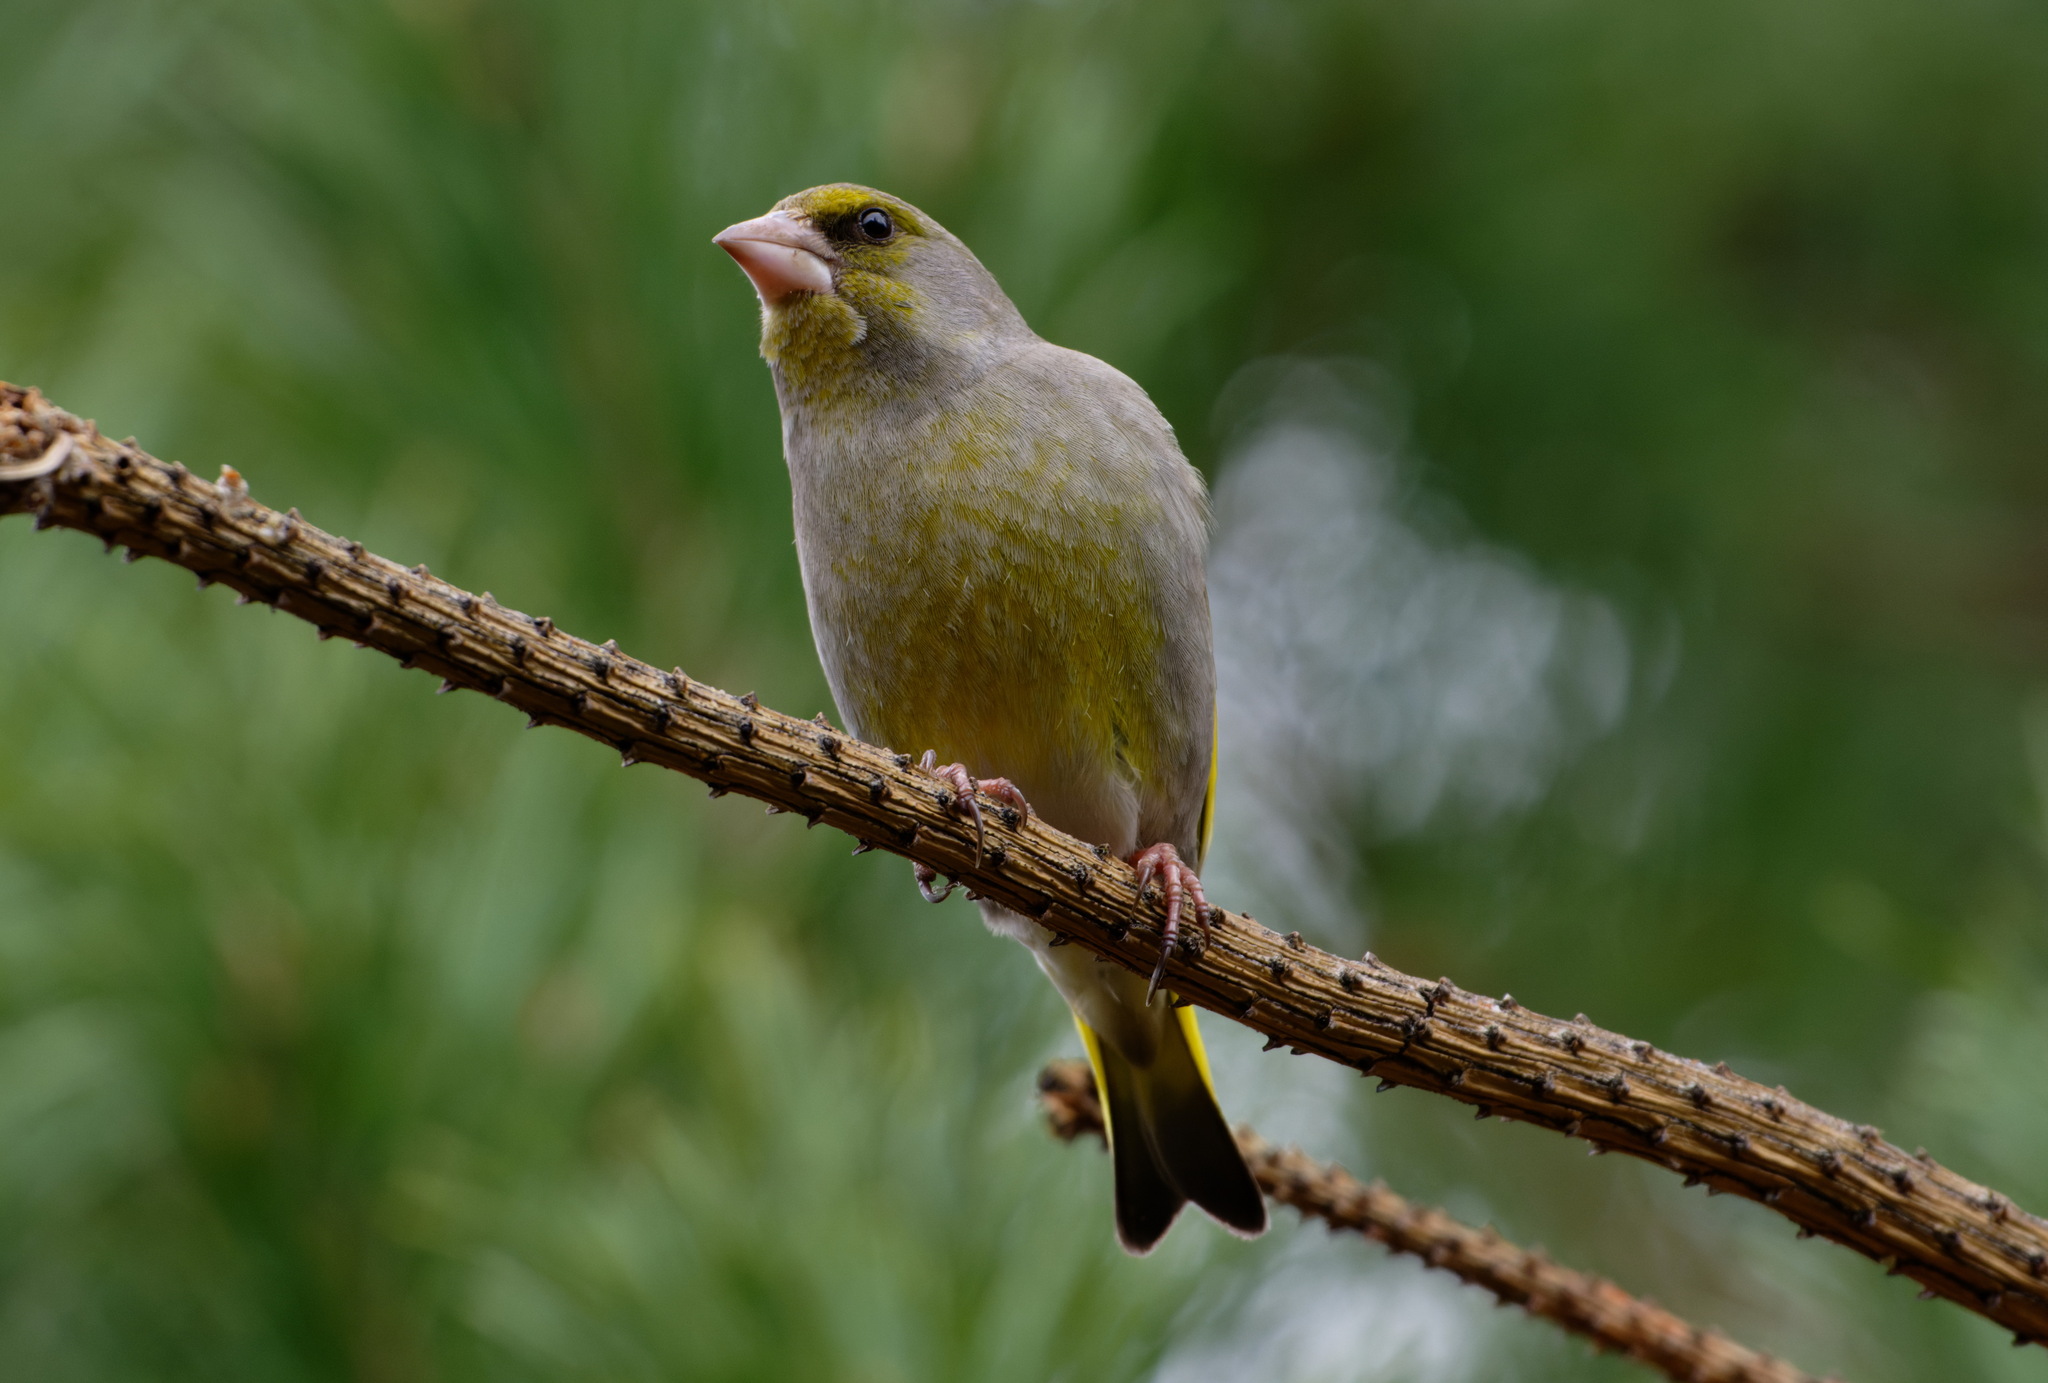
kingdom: Plantae
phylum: Tracheophyta
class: Liliopsida
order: Poales
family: Poaceae
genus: Chloris
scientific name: Chloris chloris
